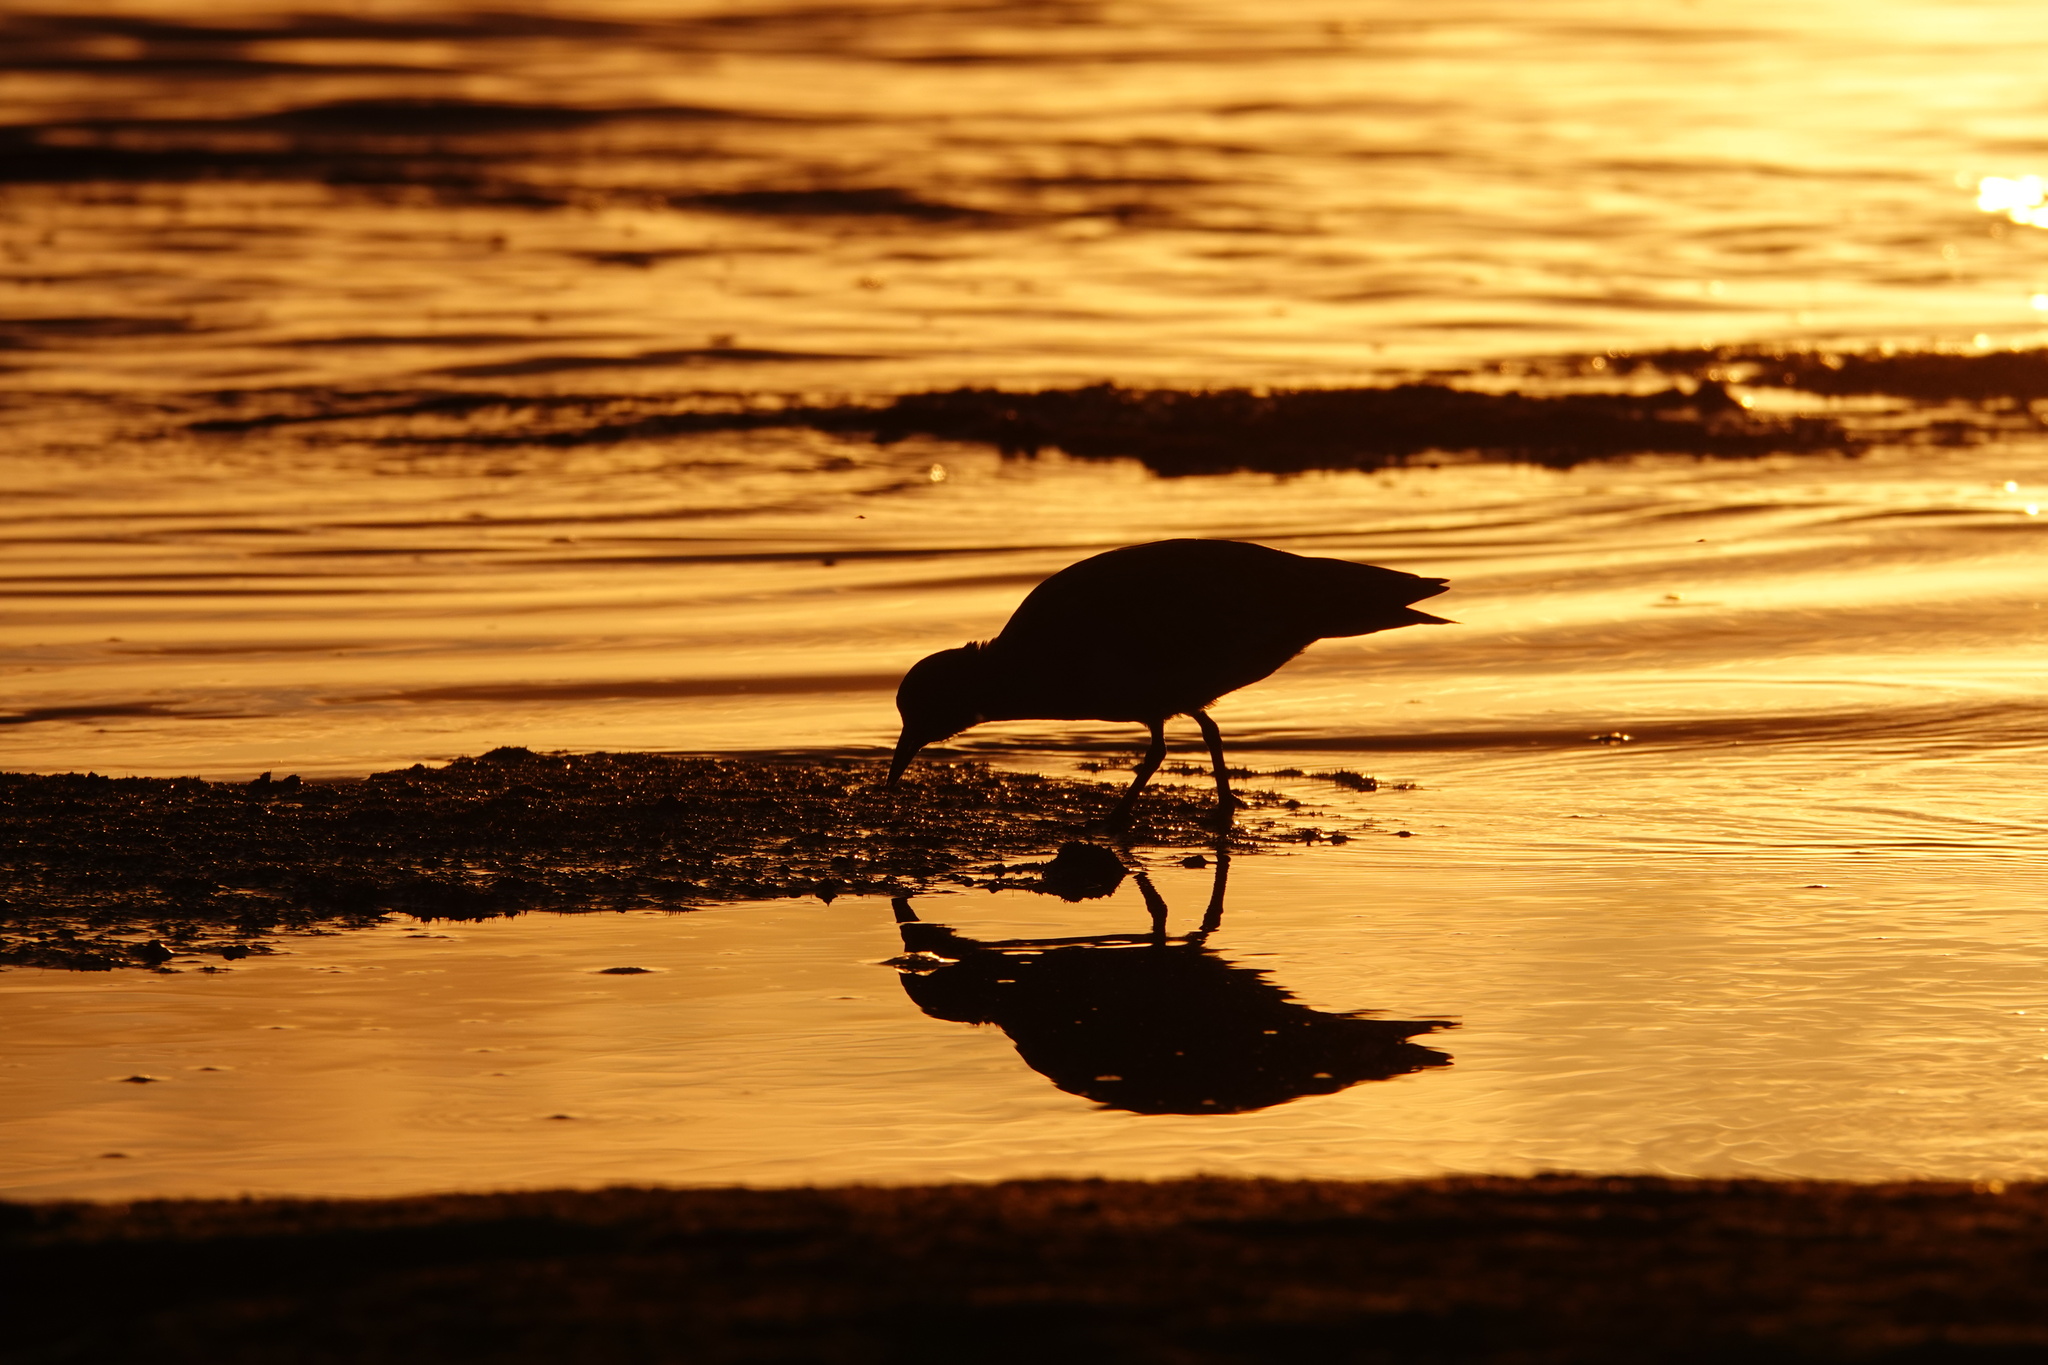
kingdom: Animalia
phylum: Chordata
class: Aves
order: Charadriiformes
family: Scolopacidae
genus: Arenaria
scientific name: Arenaria interpres
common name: Ruddy turnstone
